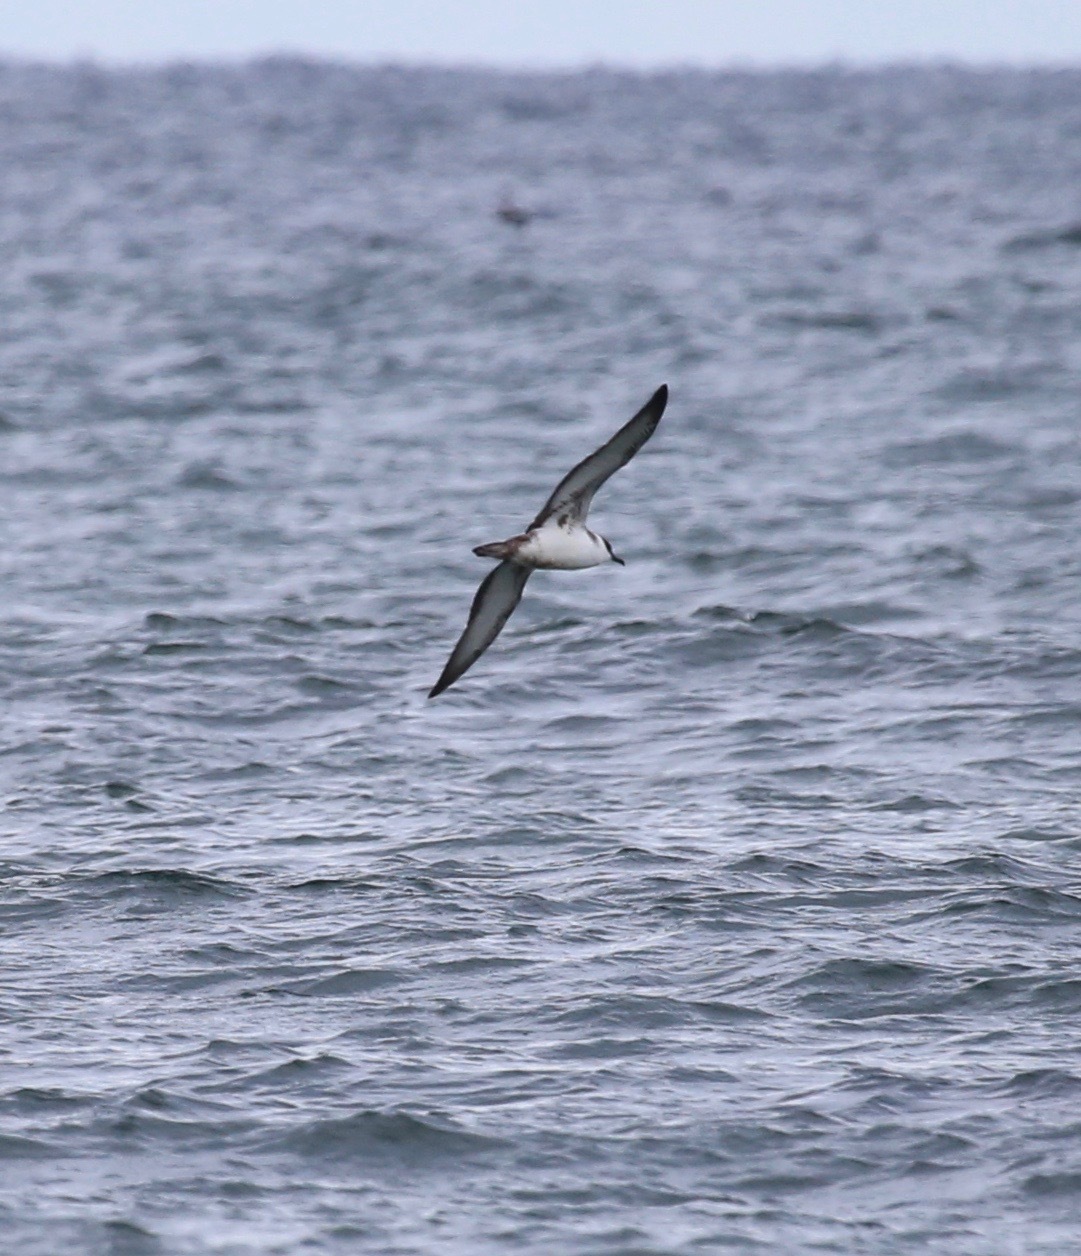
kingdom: Animalia
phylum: Chordata
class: Aves
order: Procellariiformes
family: Procellariidae
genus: Puffinus
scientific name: Puffinus gravis
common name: Great shearwater
